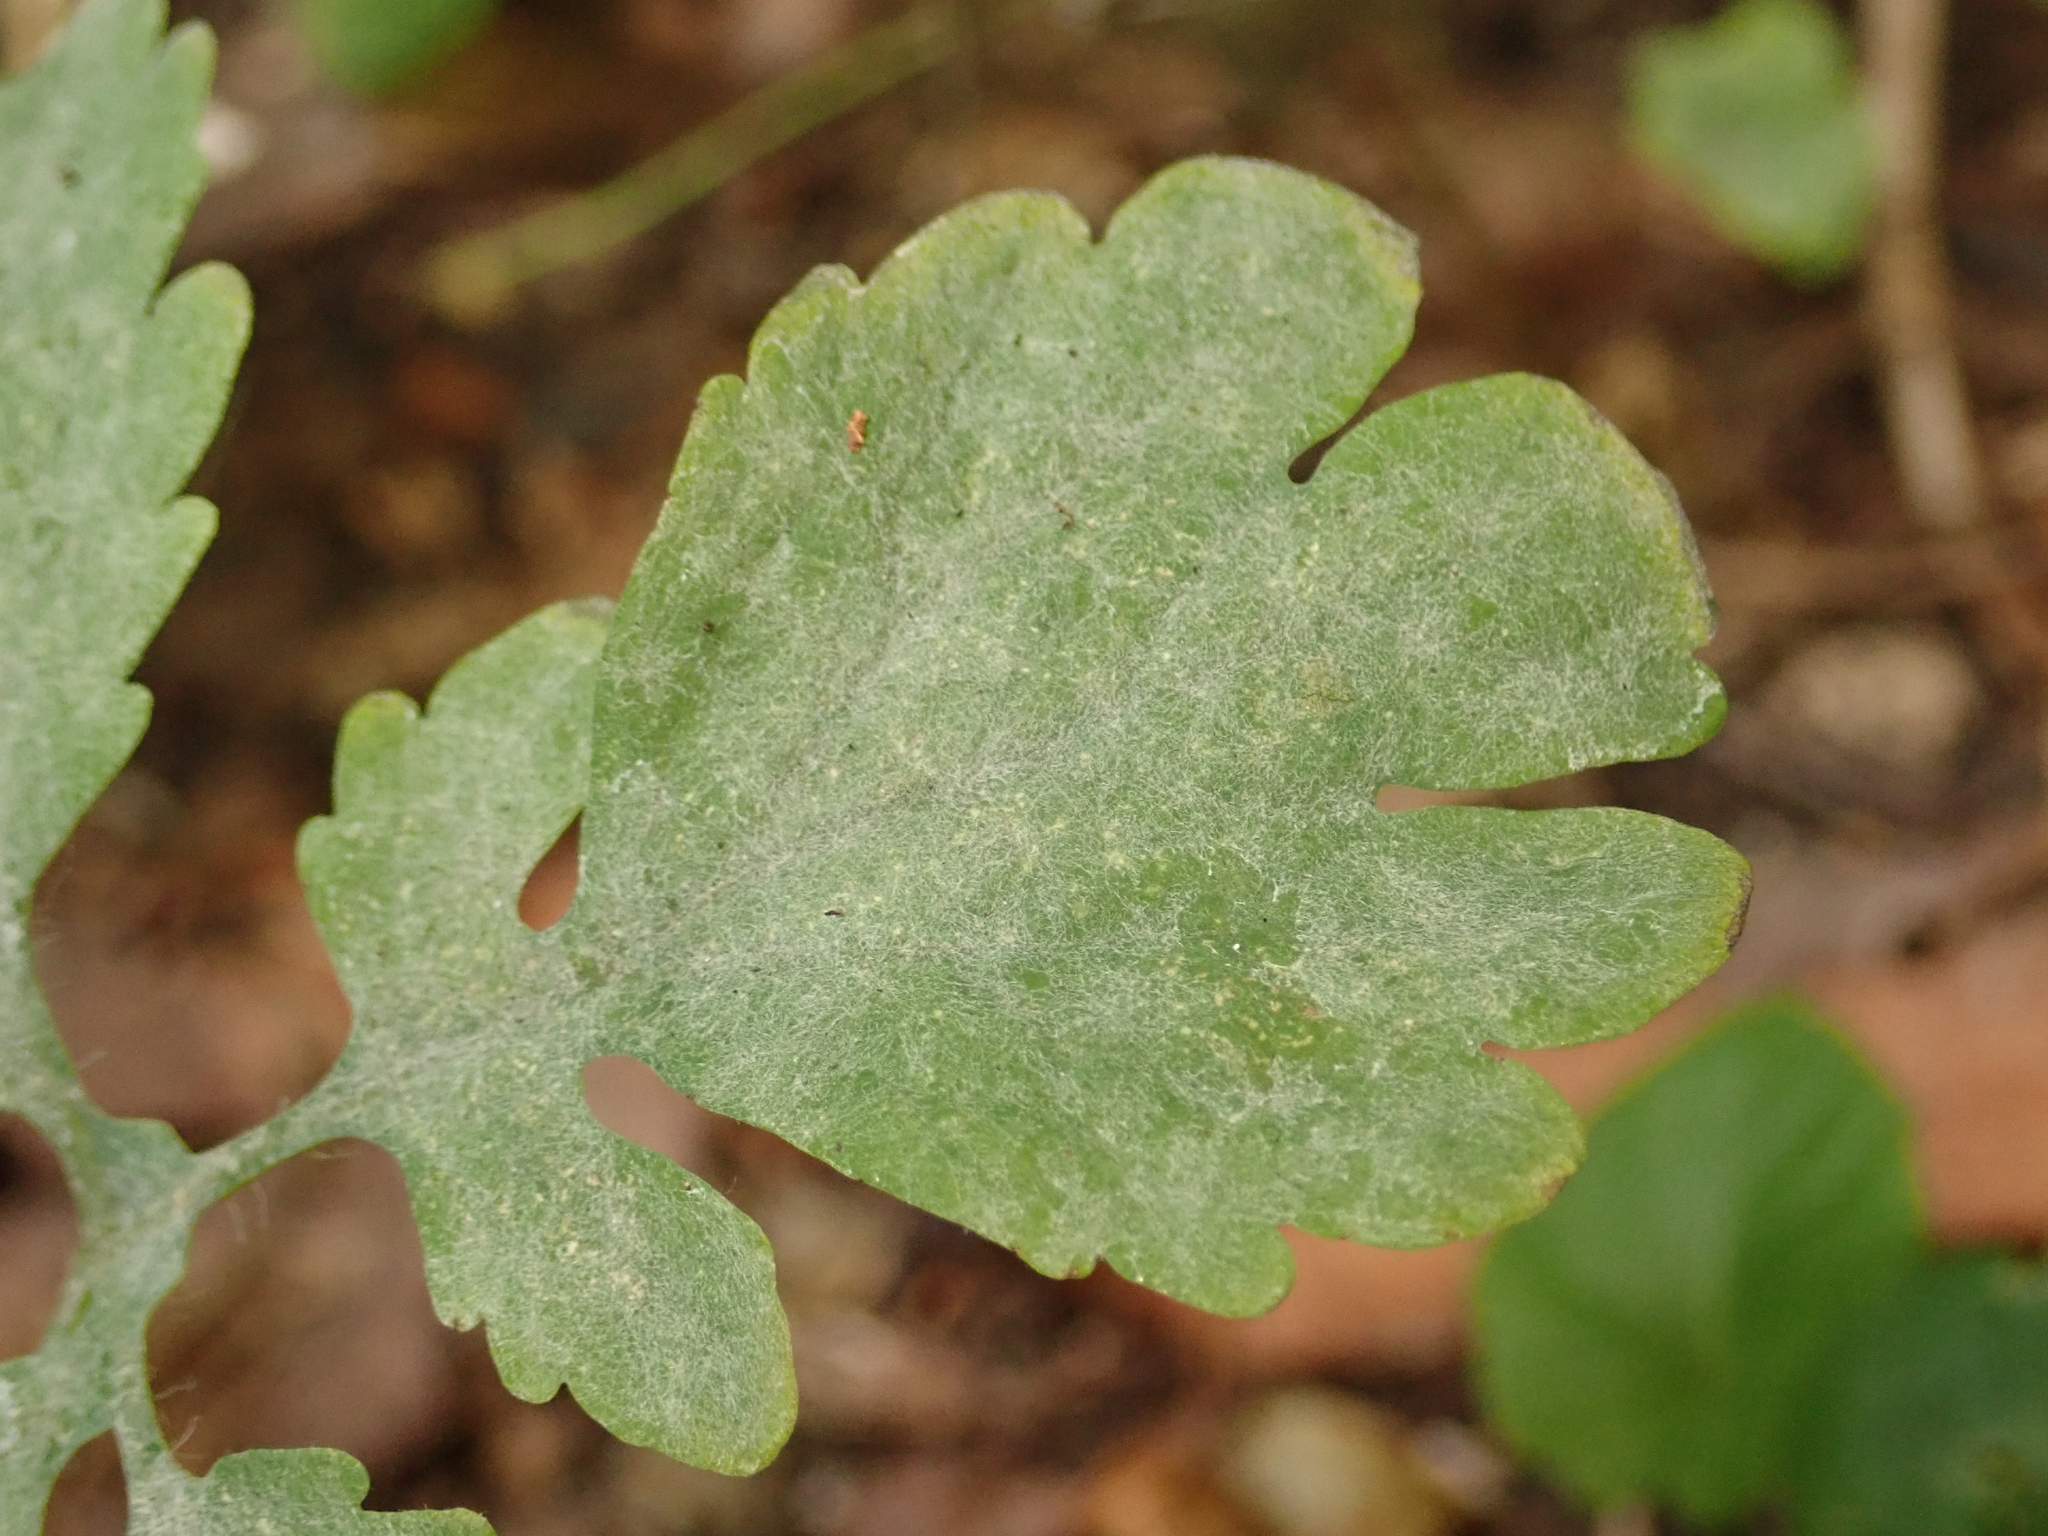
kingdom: Fungi
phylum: Ascomycota
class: Leotiomycetes
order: Helotiales
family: Erysiphaceae
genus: Erysiphe
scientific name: Erysiphe macleayae
